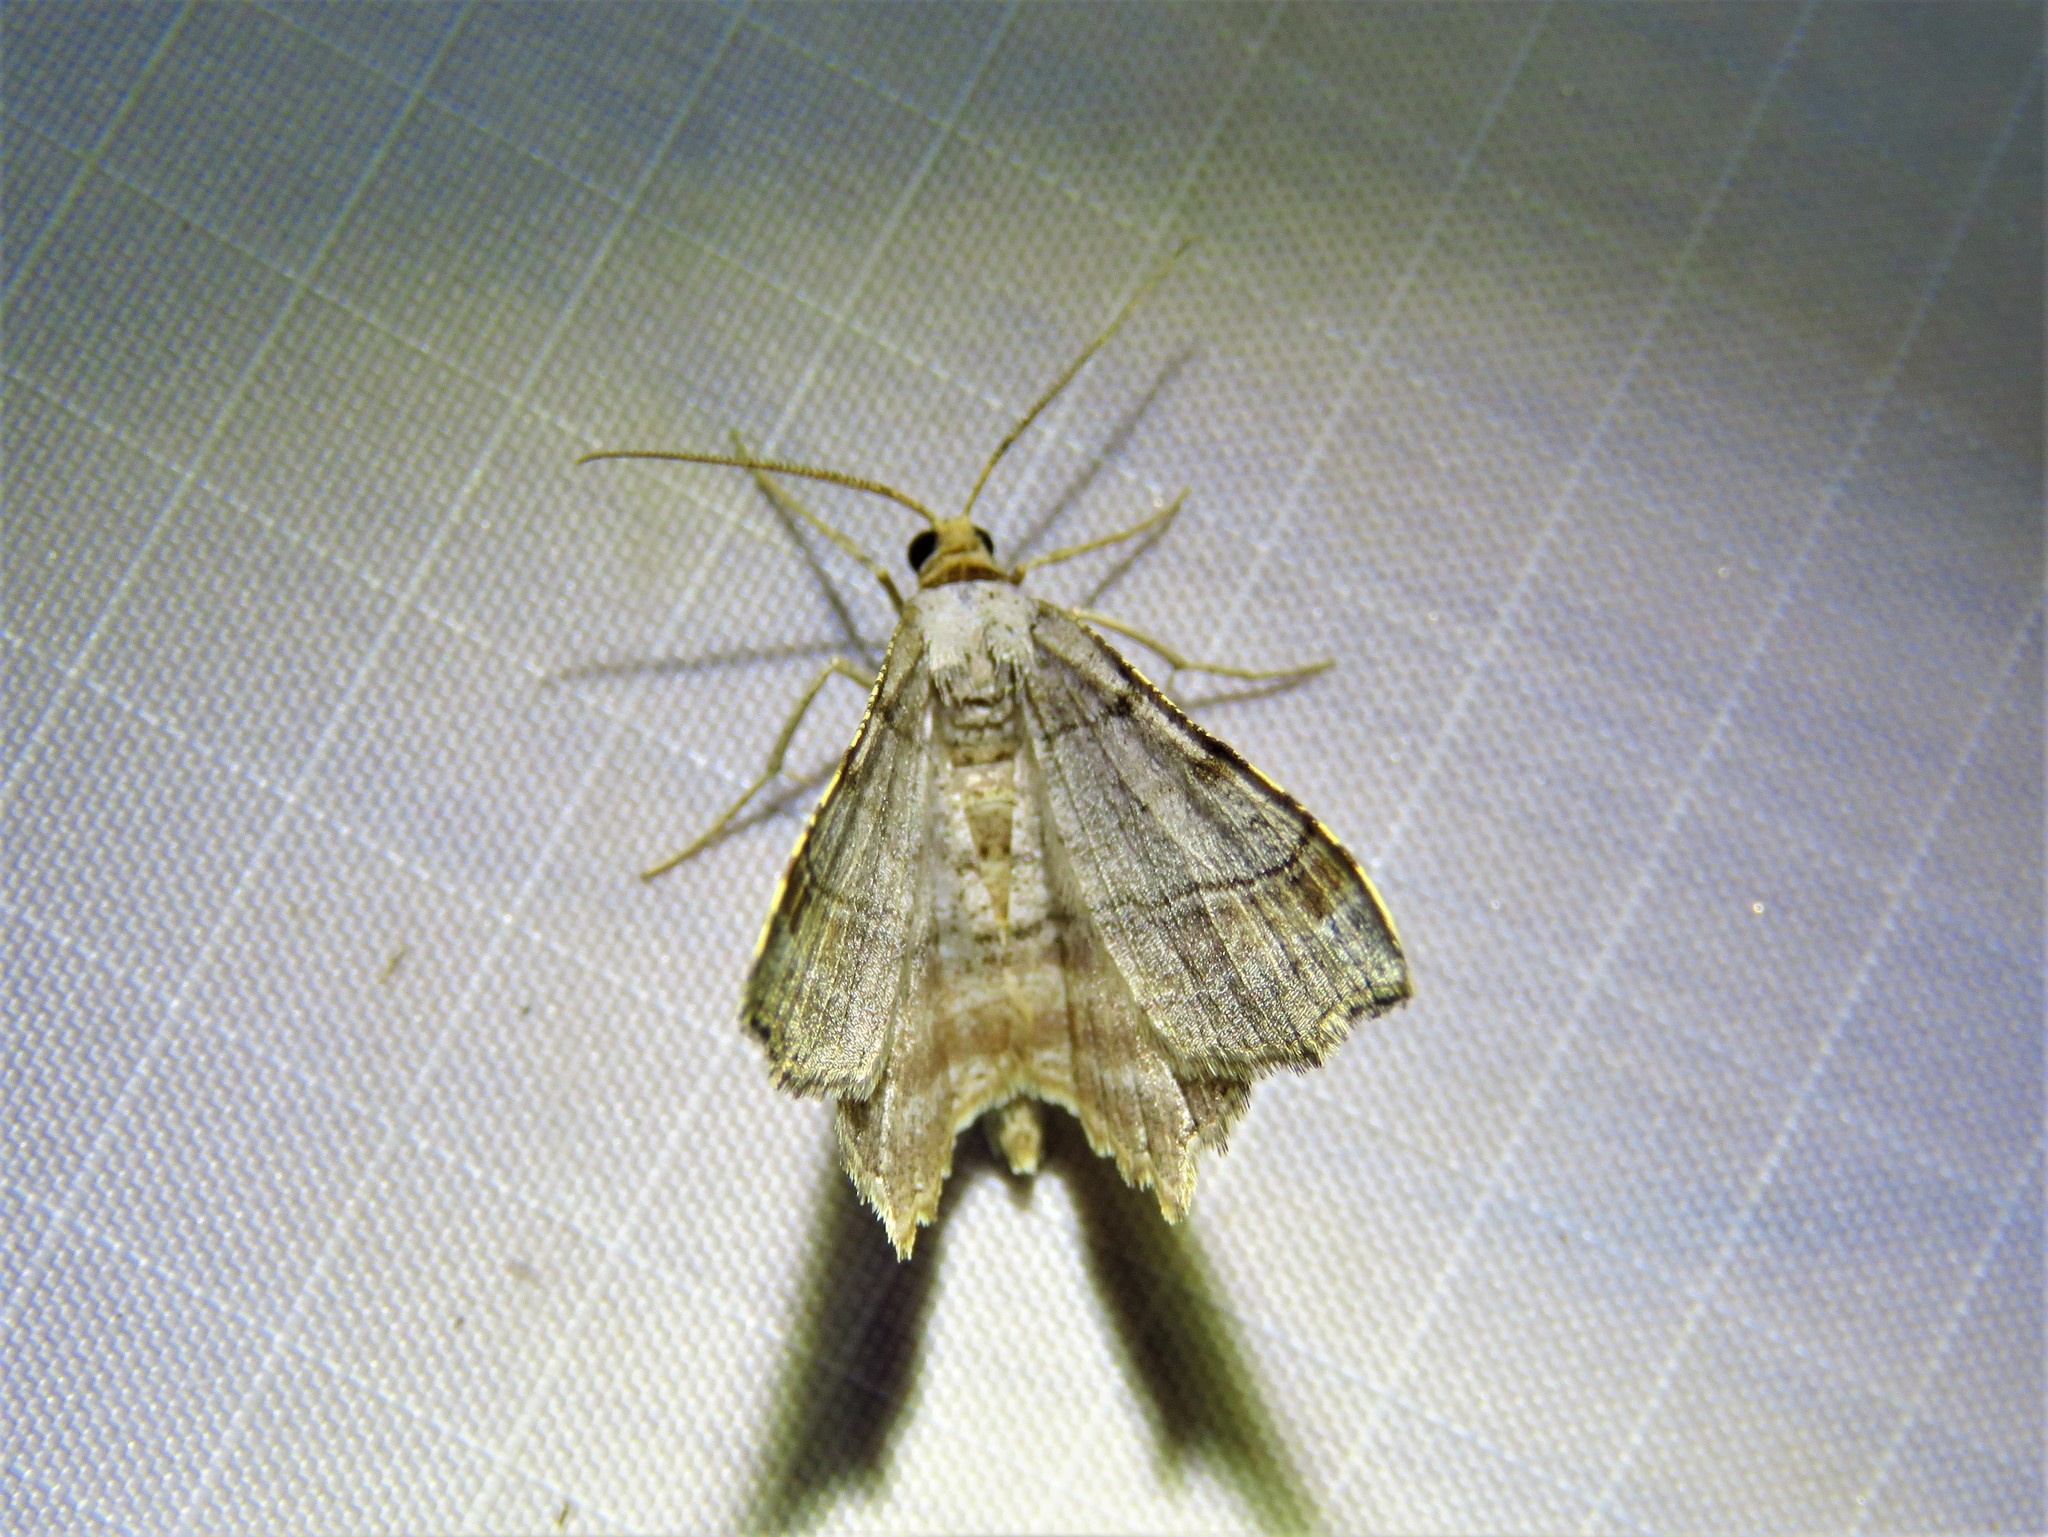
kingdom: Animalia
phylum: Arthropoda
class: Insecta
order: Lepidoptera
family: Geometridae
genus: Macaria
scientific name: Macaria multilineata
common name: Many-lined angle
